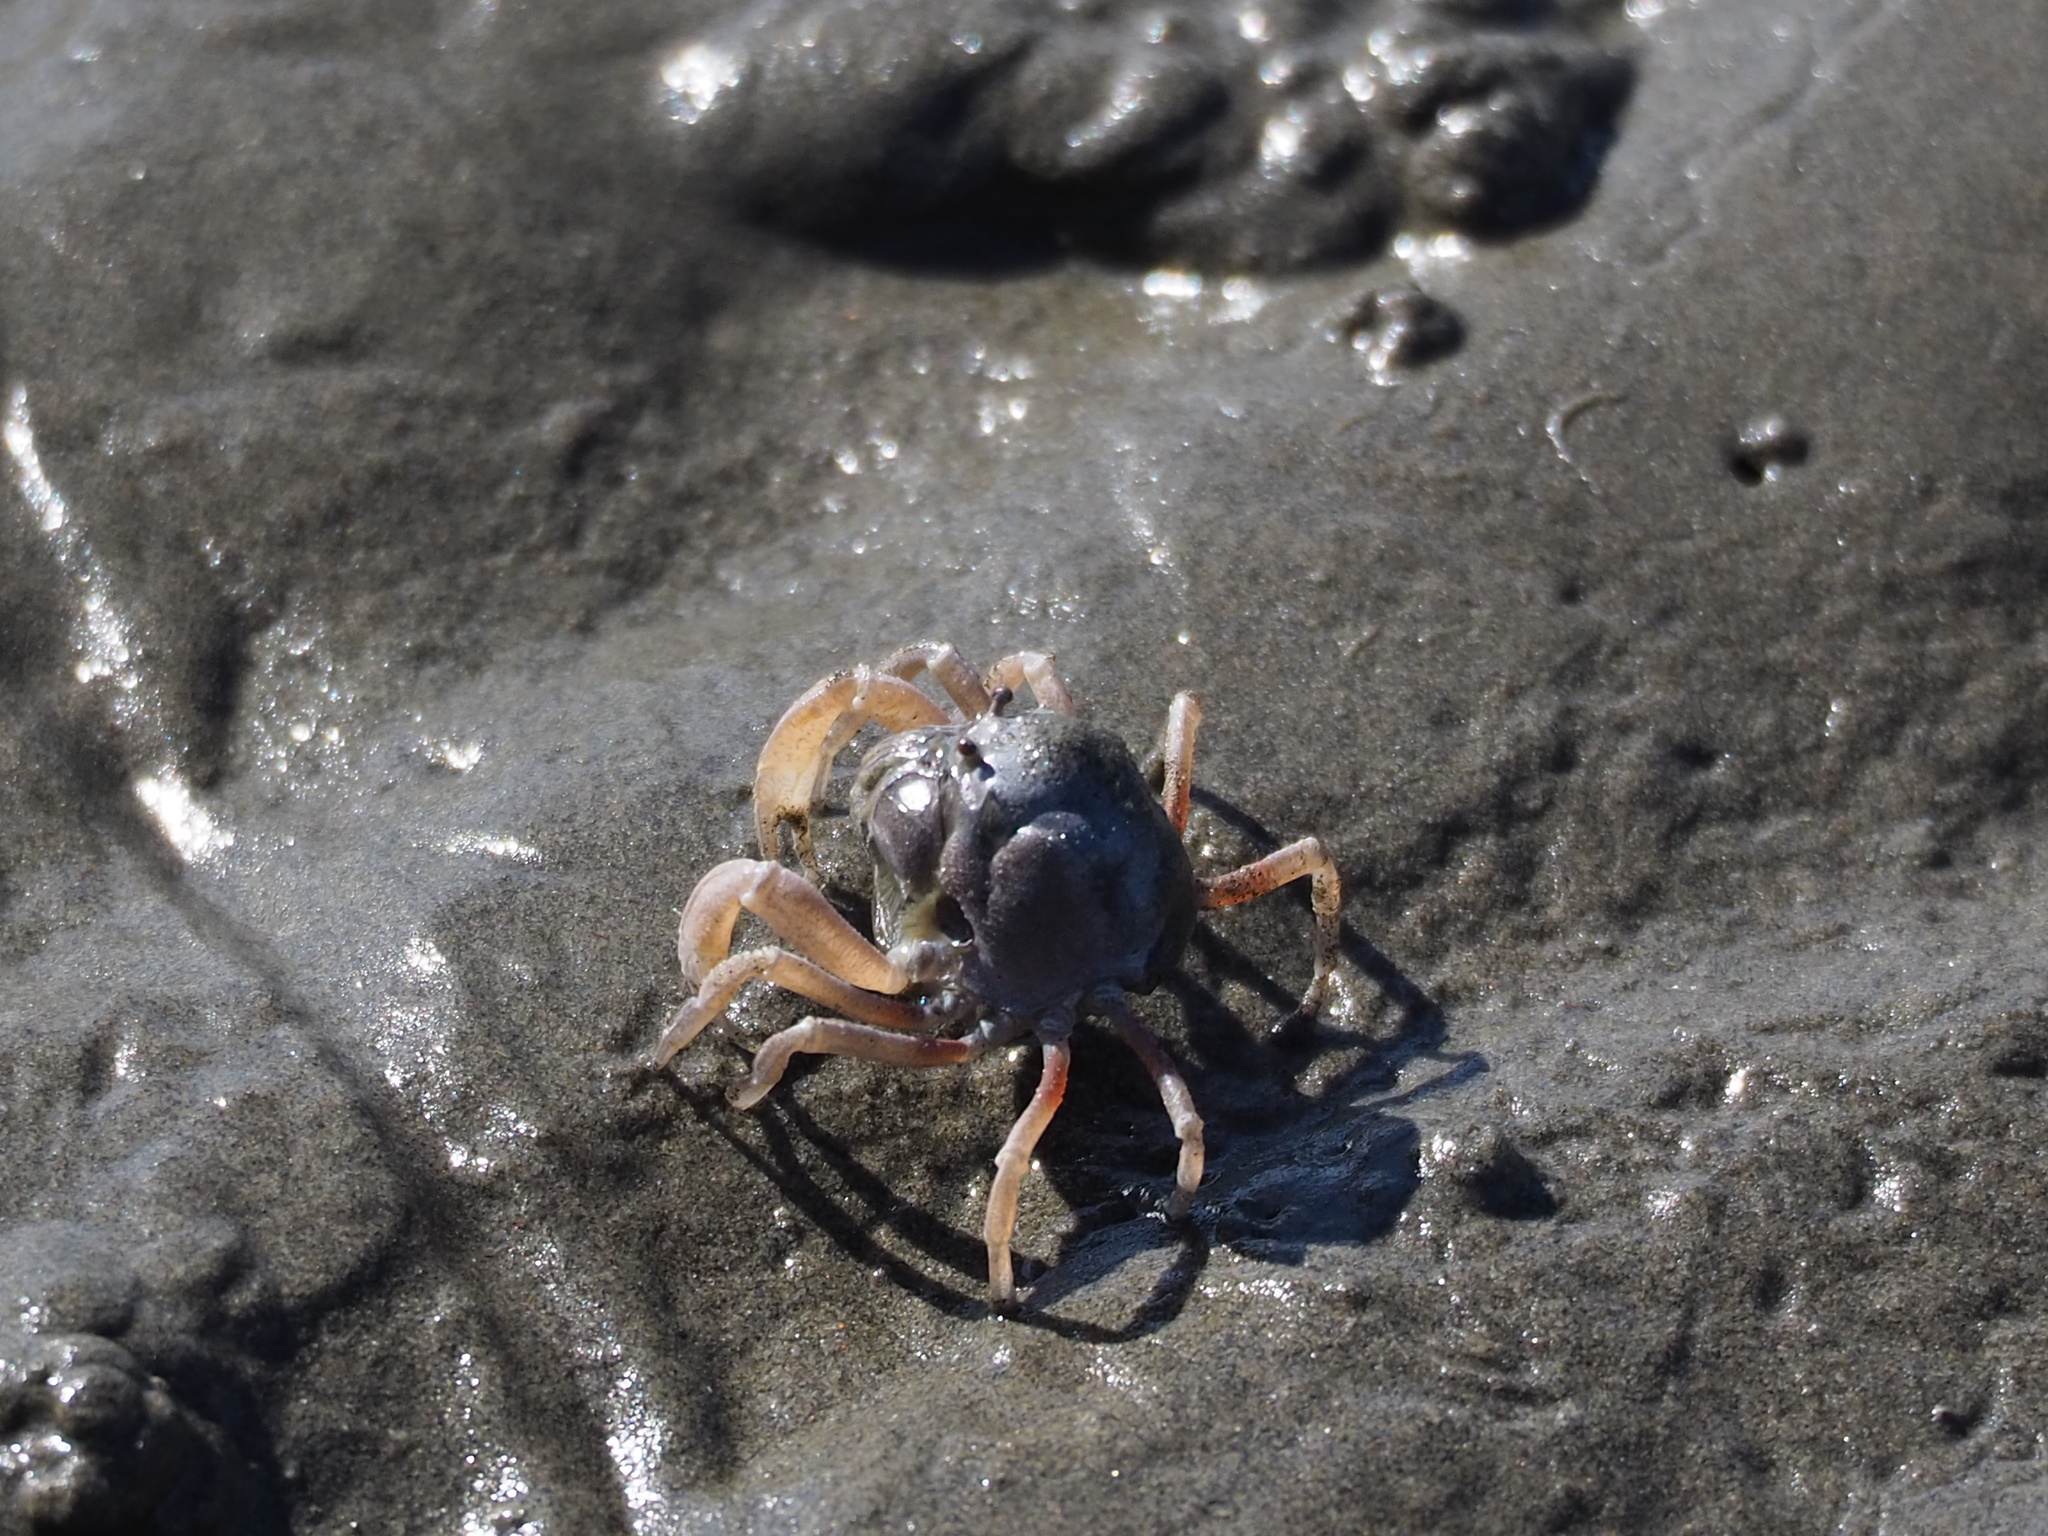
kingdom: Animalia
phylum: Arthropoda
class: Malacostraca
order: Decapoda
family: Mictyridae
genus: Mictyris
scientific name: Mictyris brevidactylus
